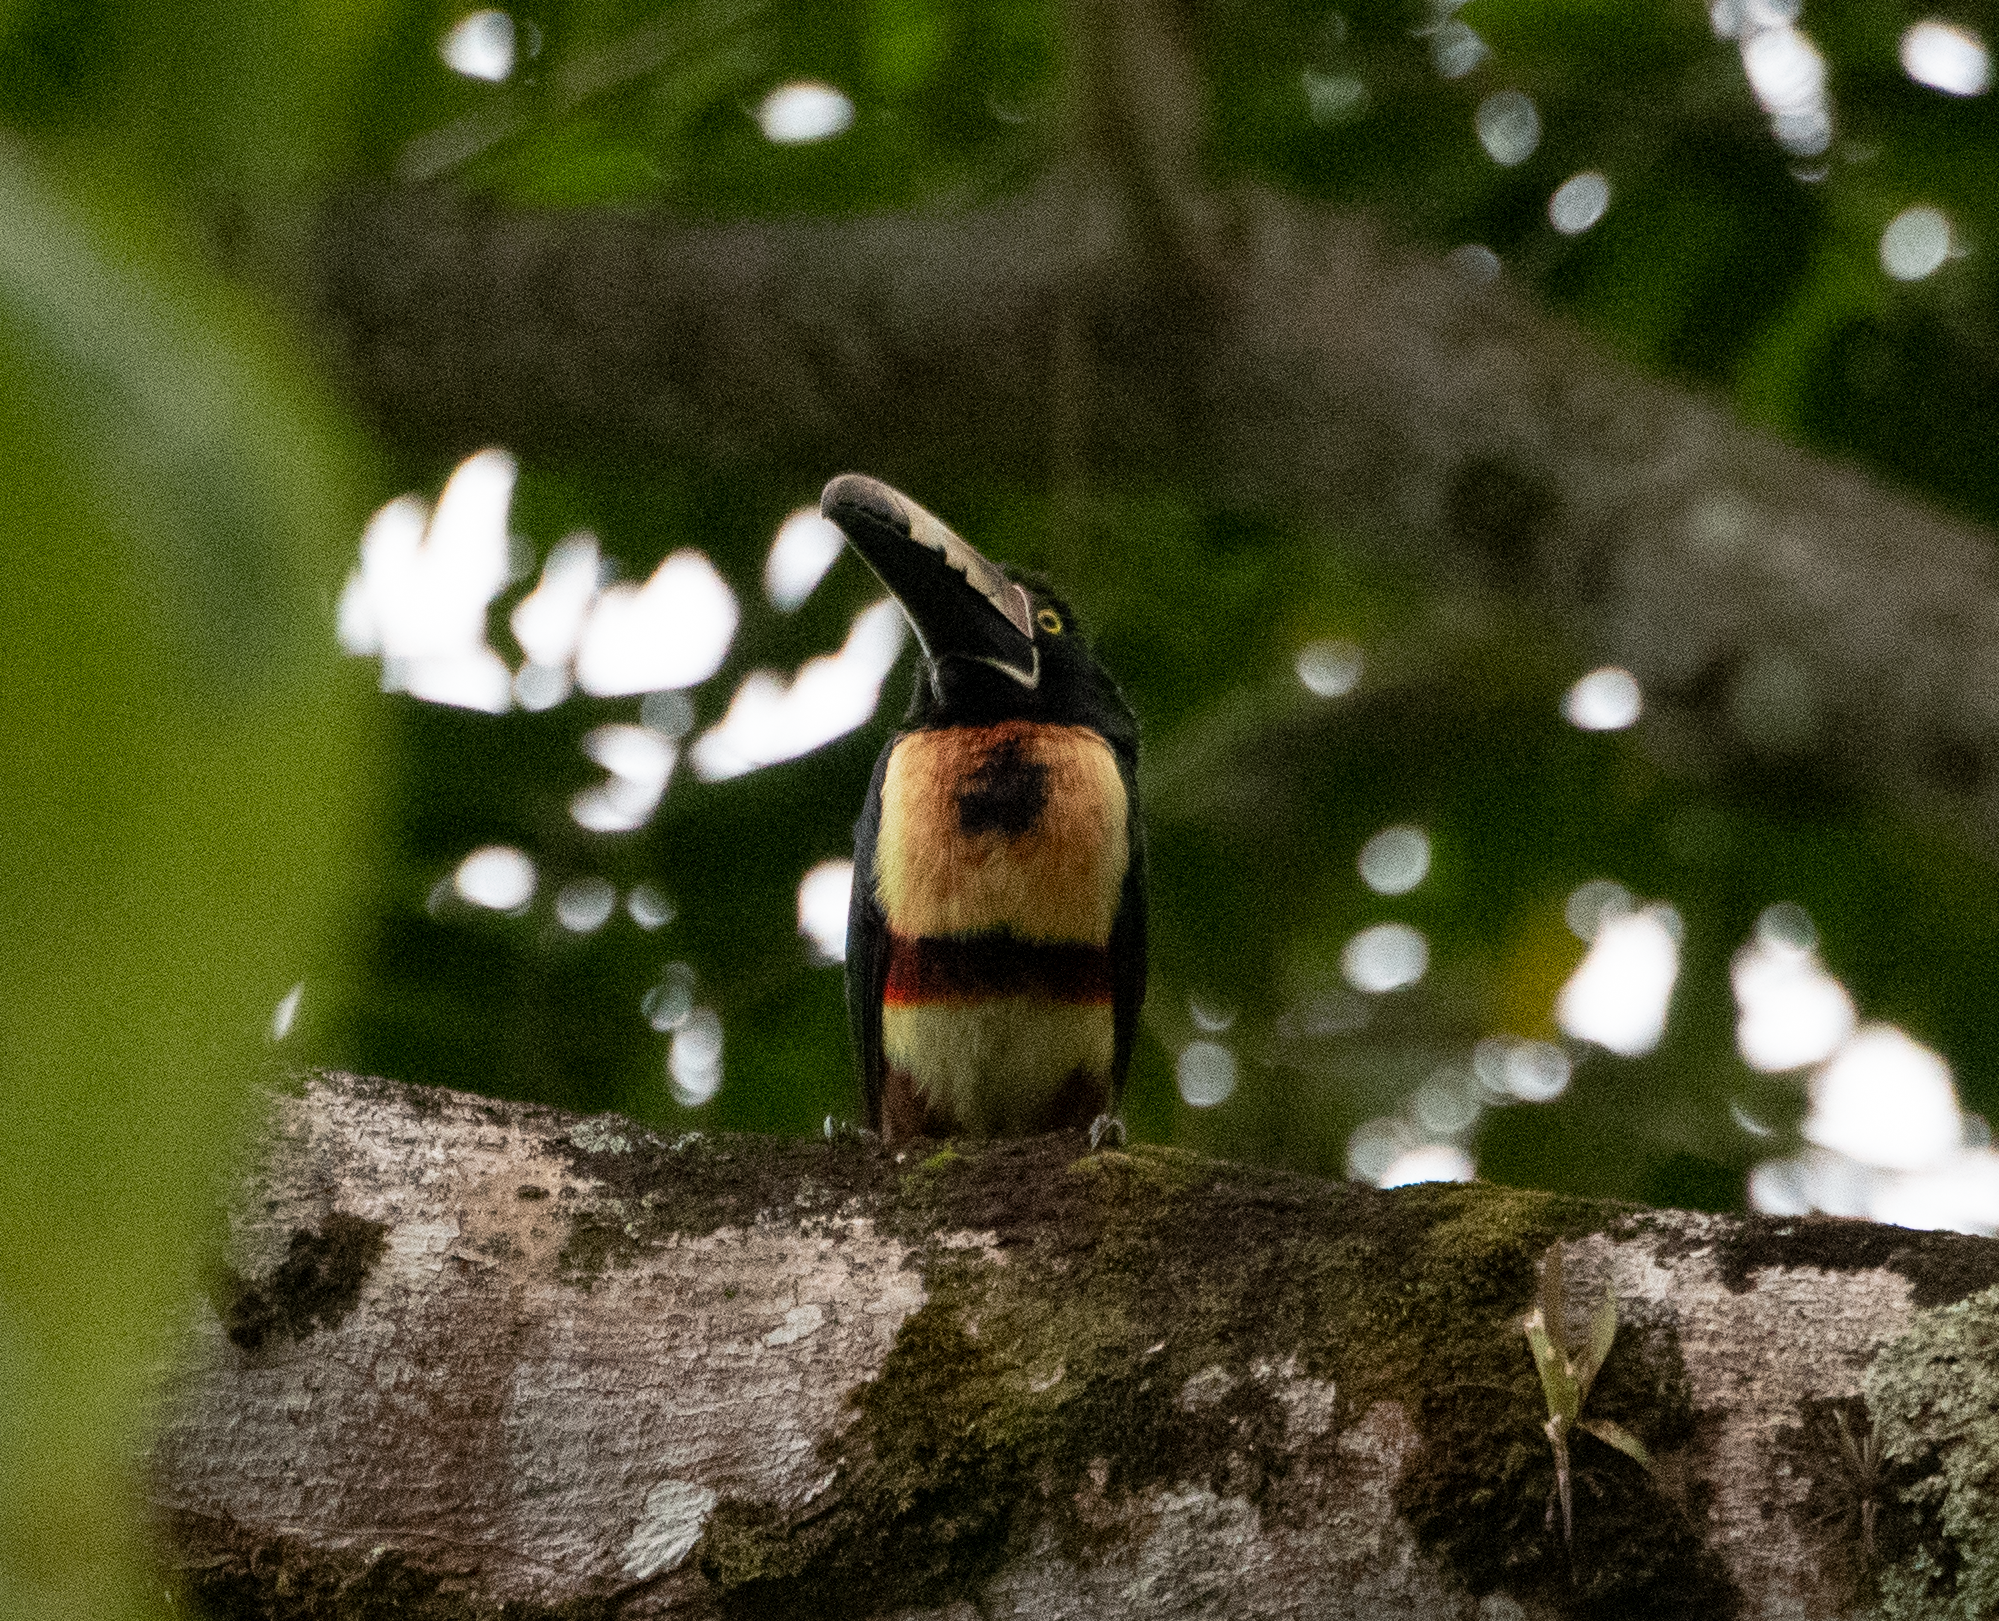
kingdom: Animalia
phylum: Chordata
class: Aves
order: Piciformes
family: Ramphastidae
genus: Pteroglossus
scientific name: Pteroglossus torquatus
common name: Collared aracari
